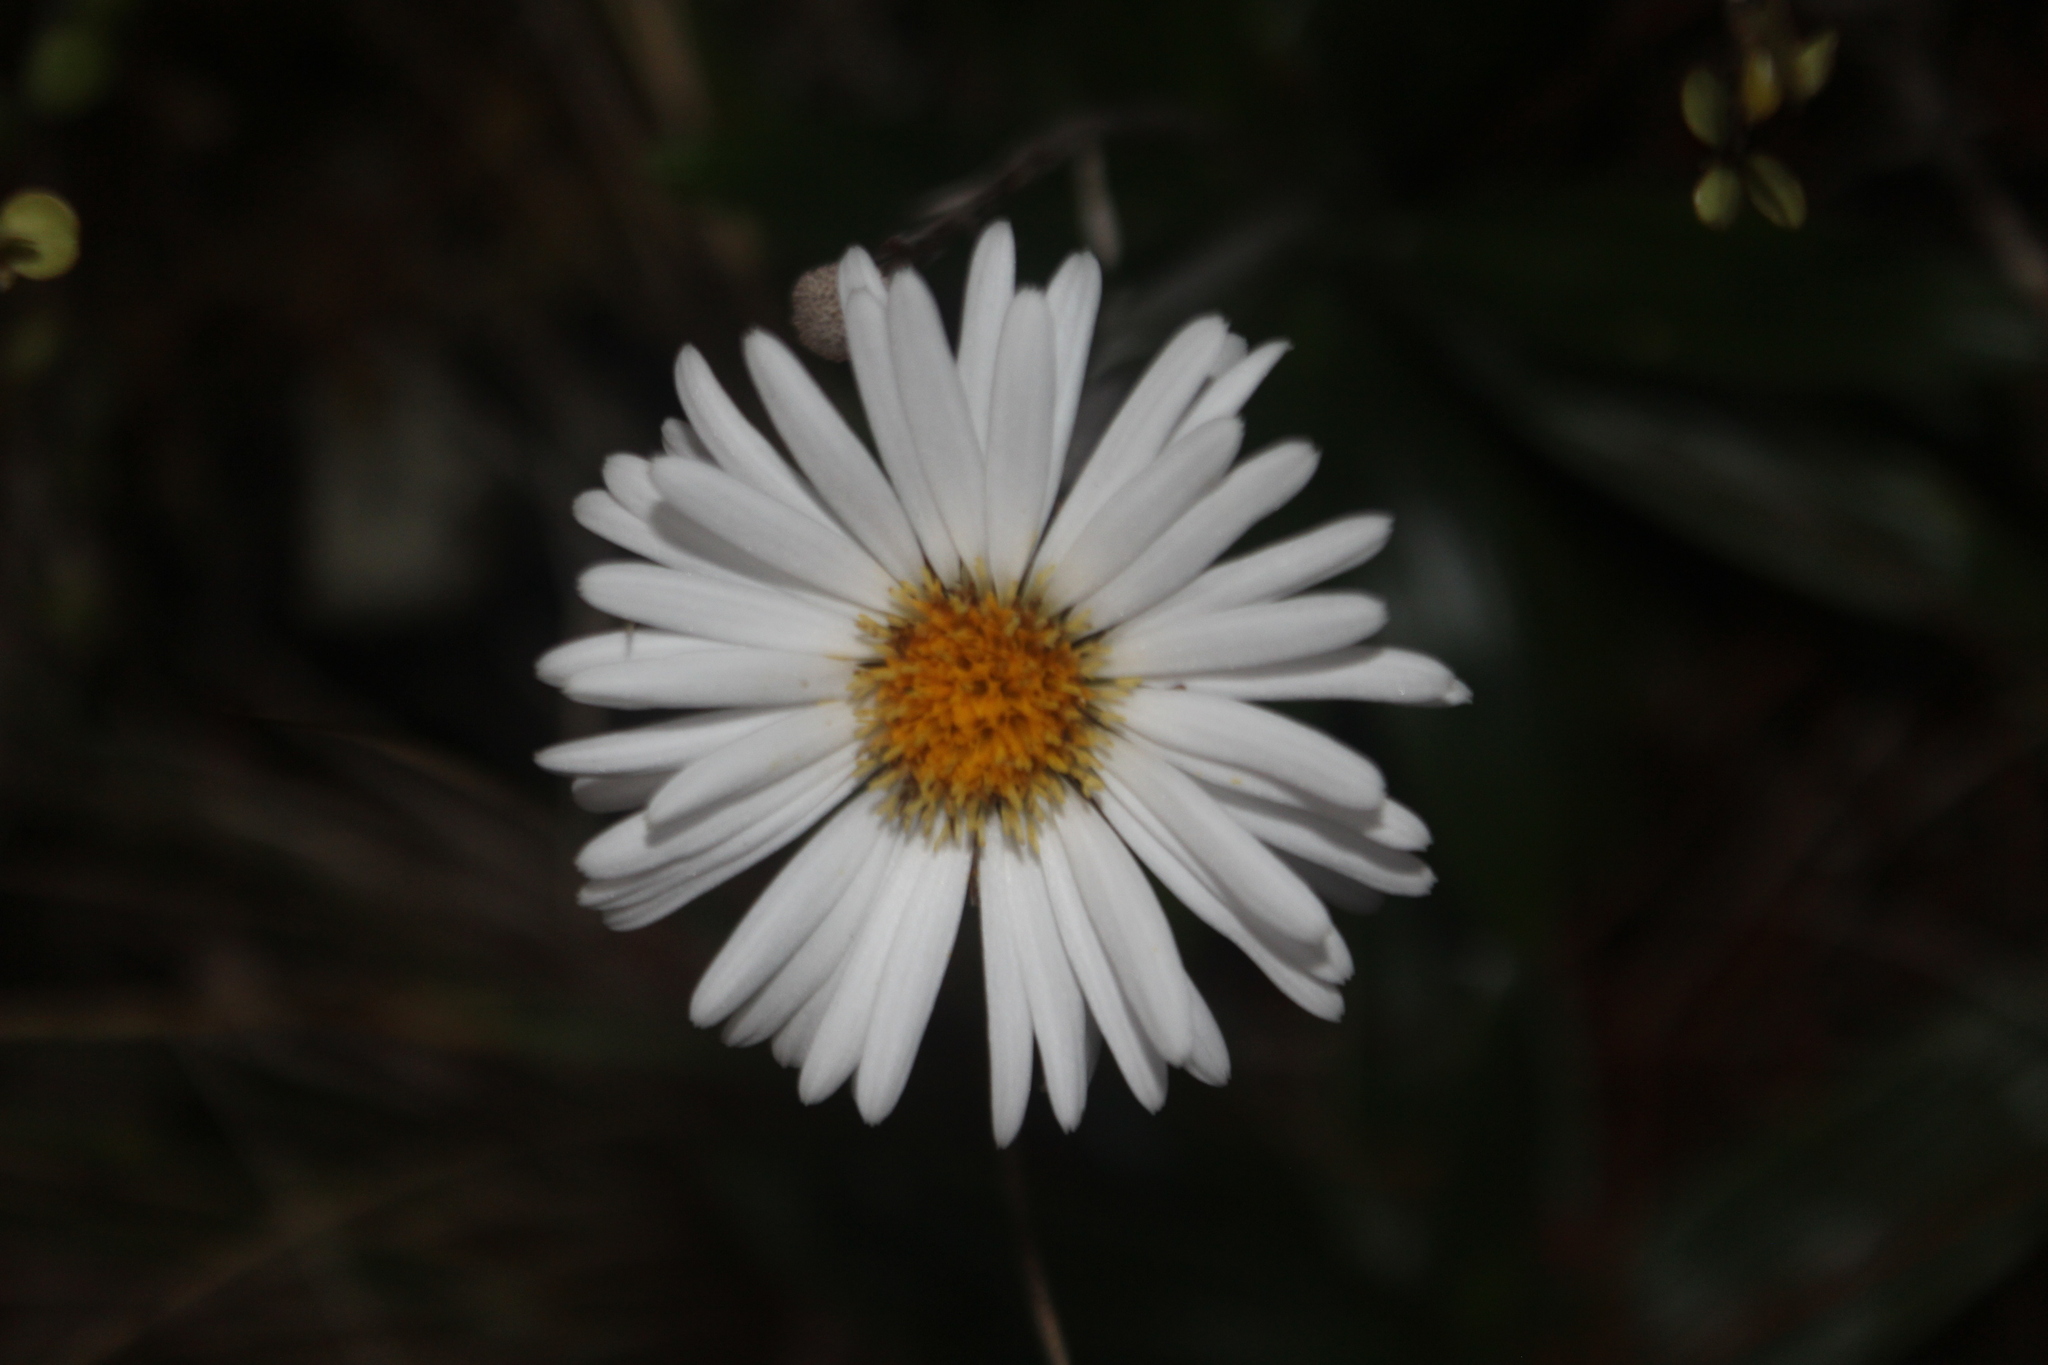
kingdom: Plantae
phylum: Tracheophyta
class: Magnoliopsida
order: Asterales
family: Asteraceae
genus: Celmisia
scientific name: Celmisia spectabilis
